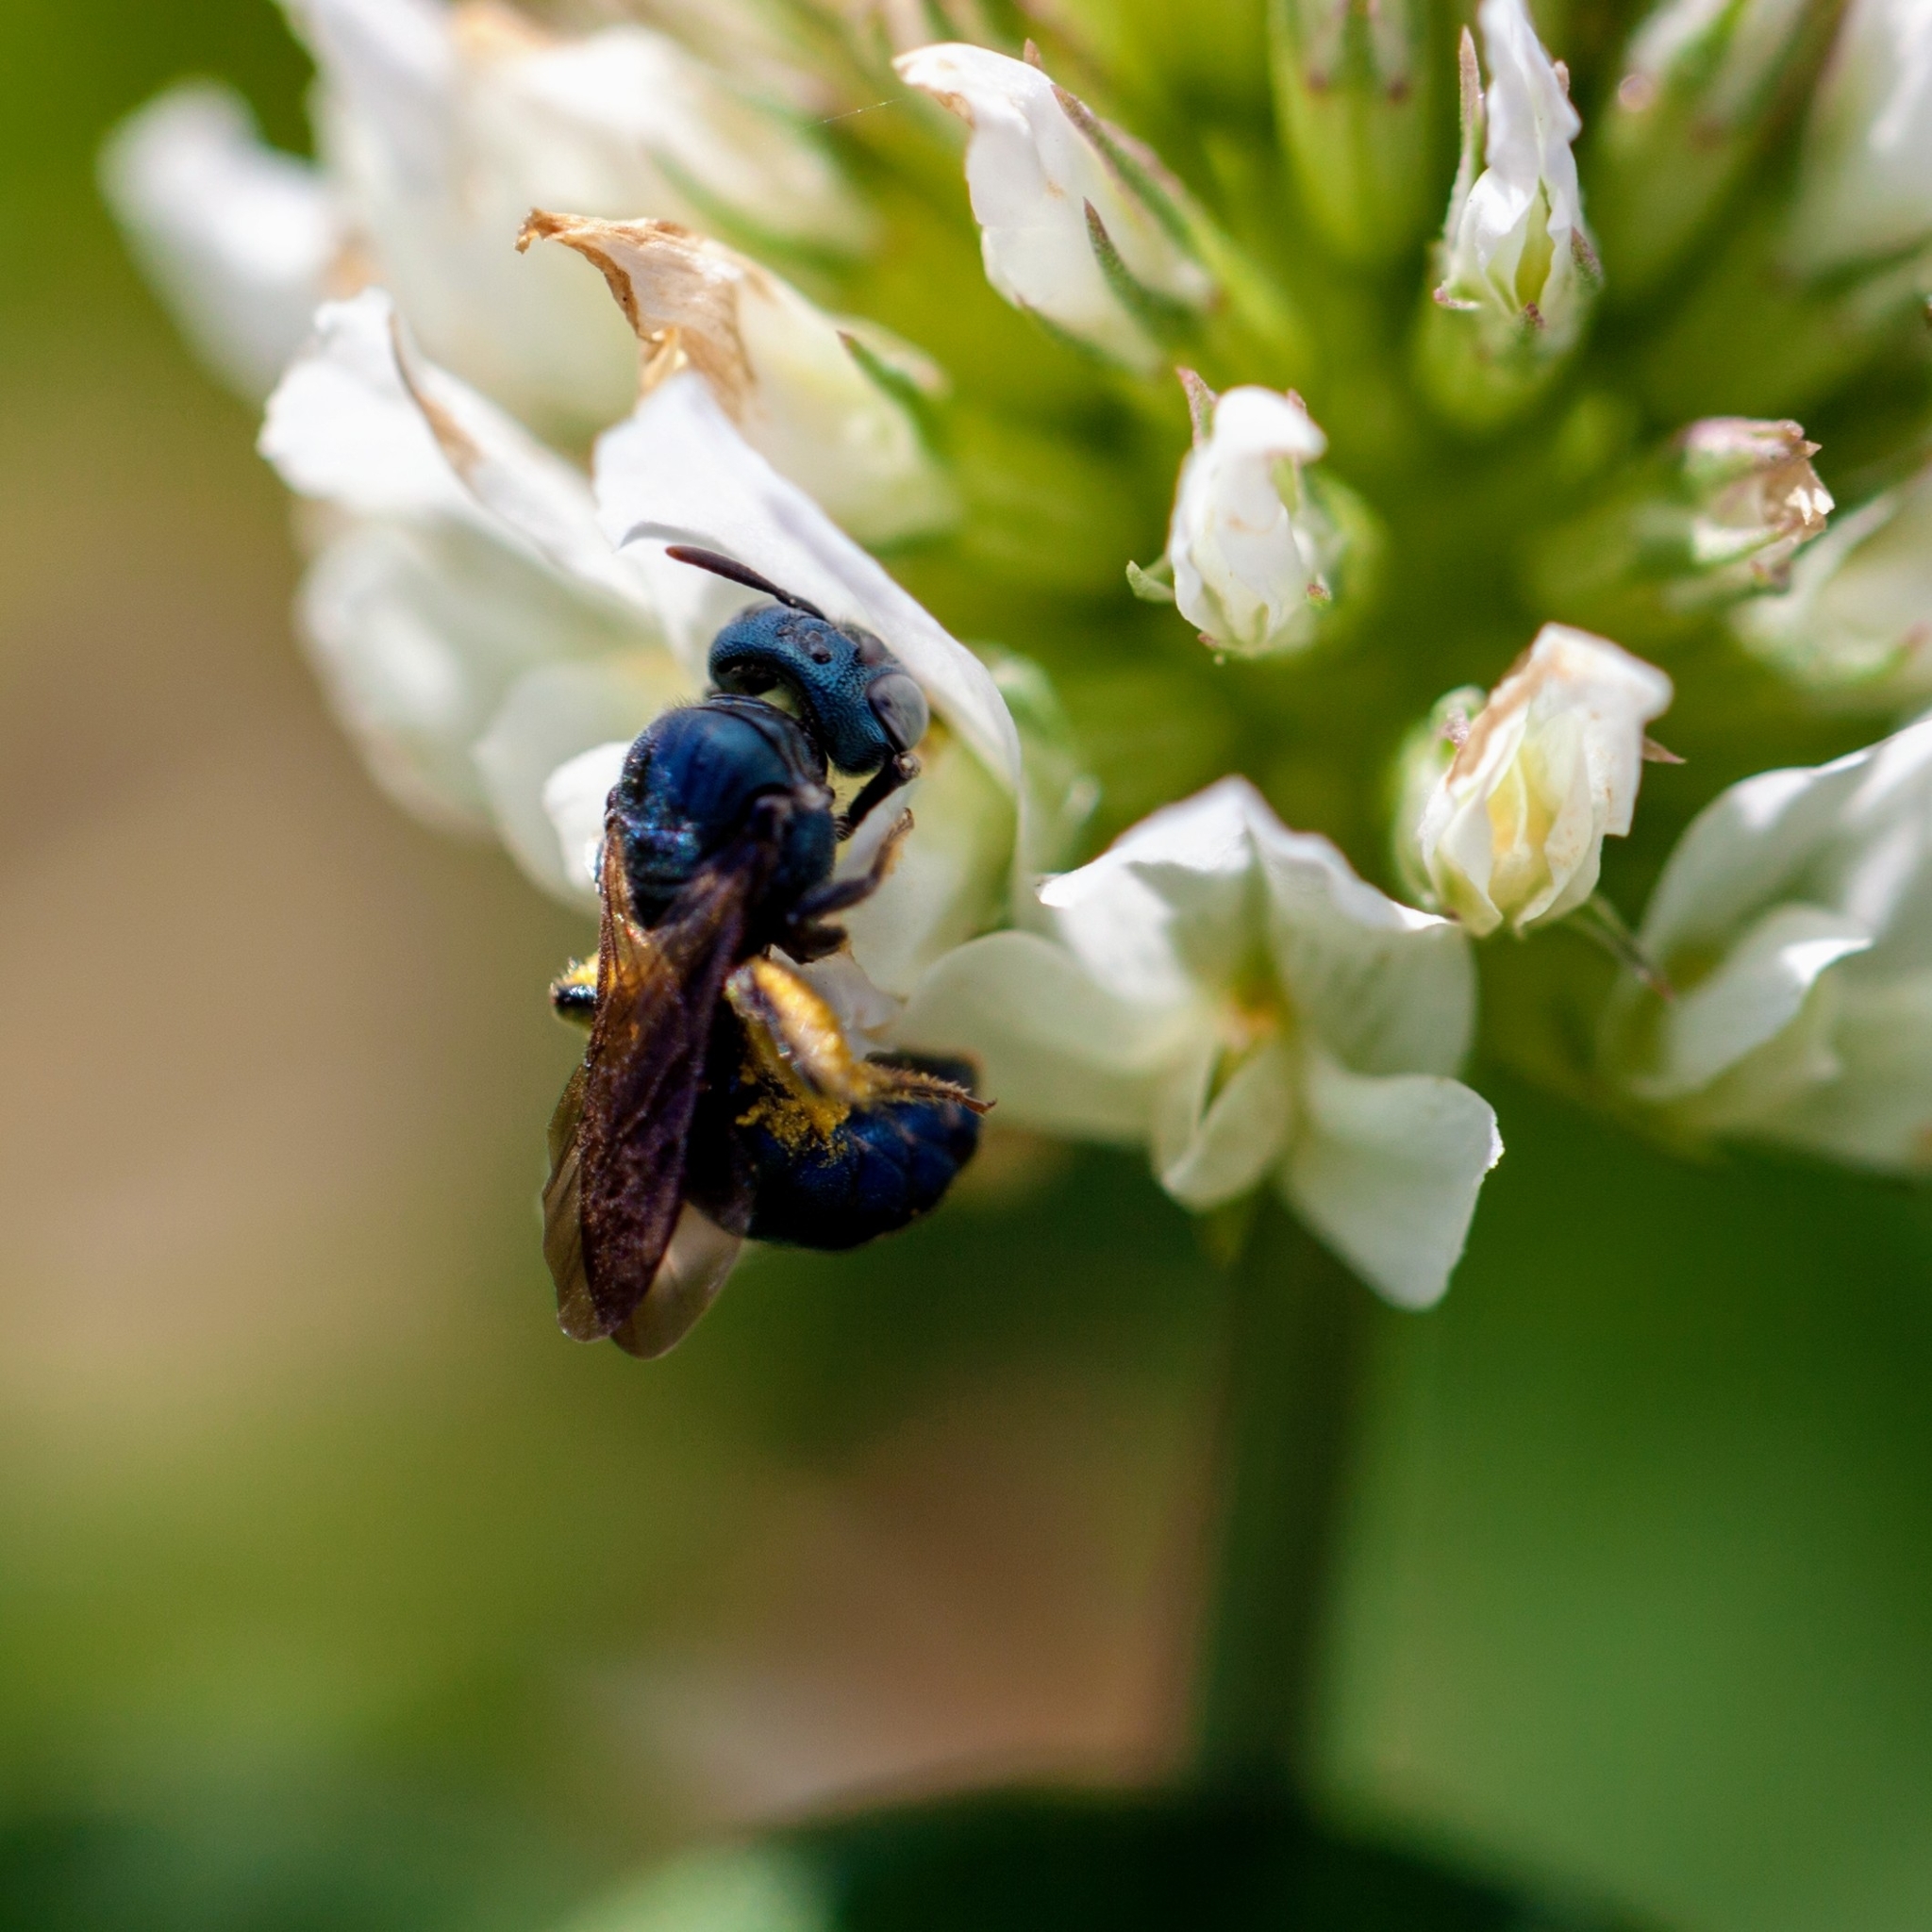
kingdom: Animalia
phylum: Arthropoda
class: Insecta
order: Hymenoptera
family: Apidae
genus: Ceratina
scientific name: Ceratina floridana
